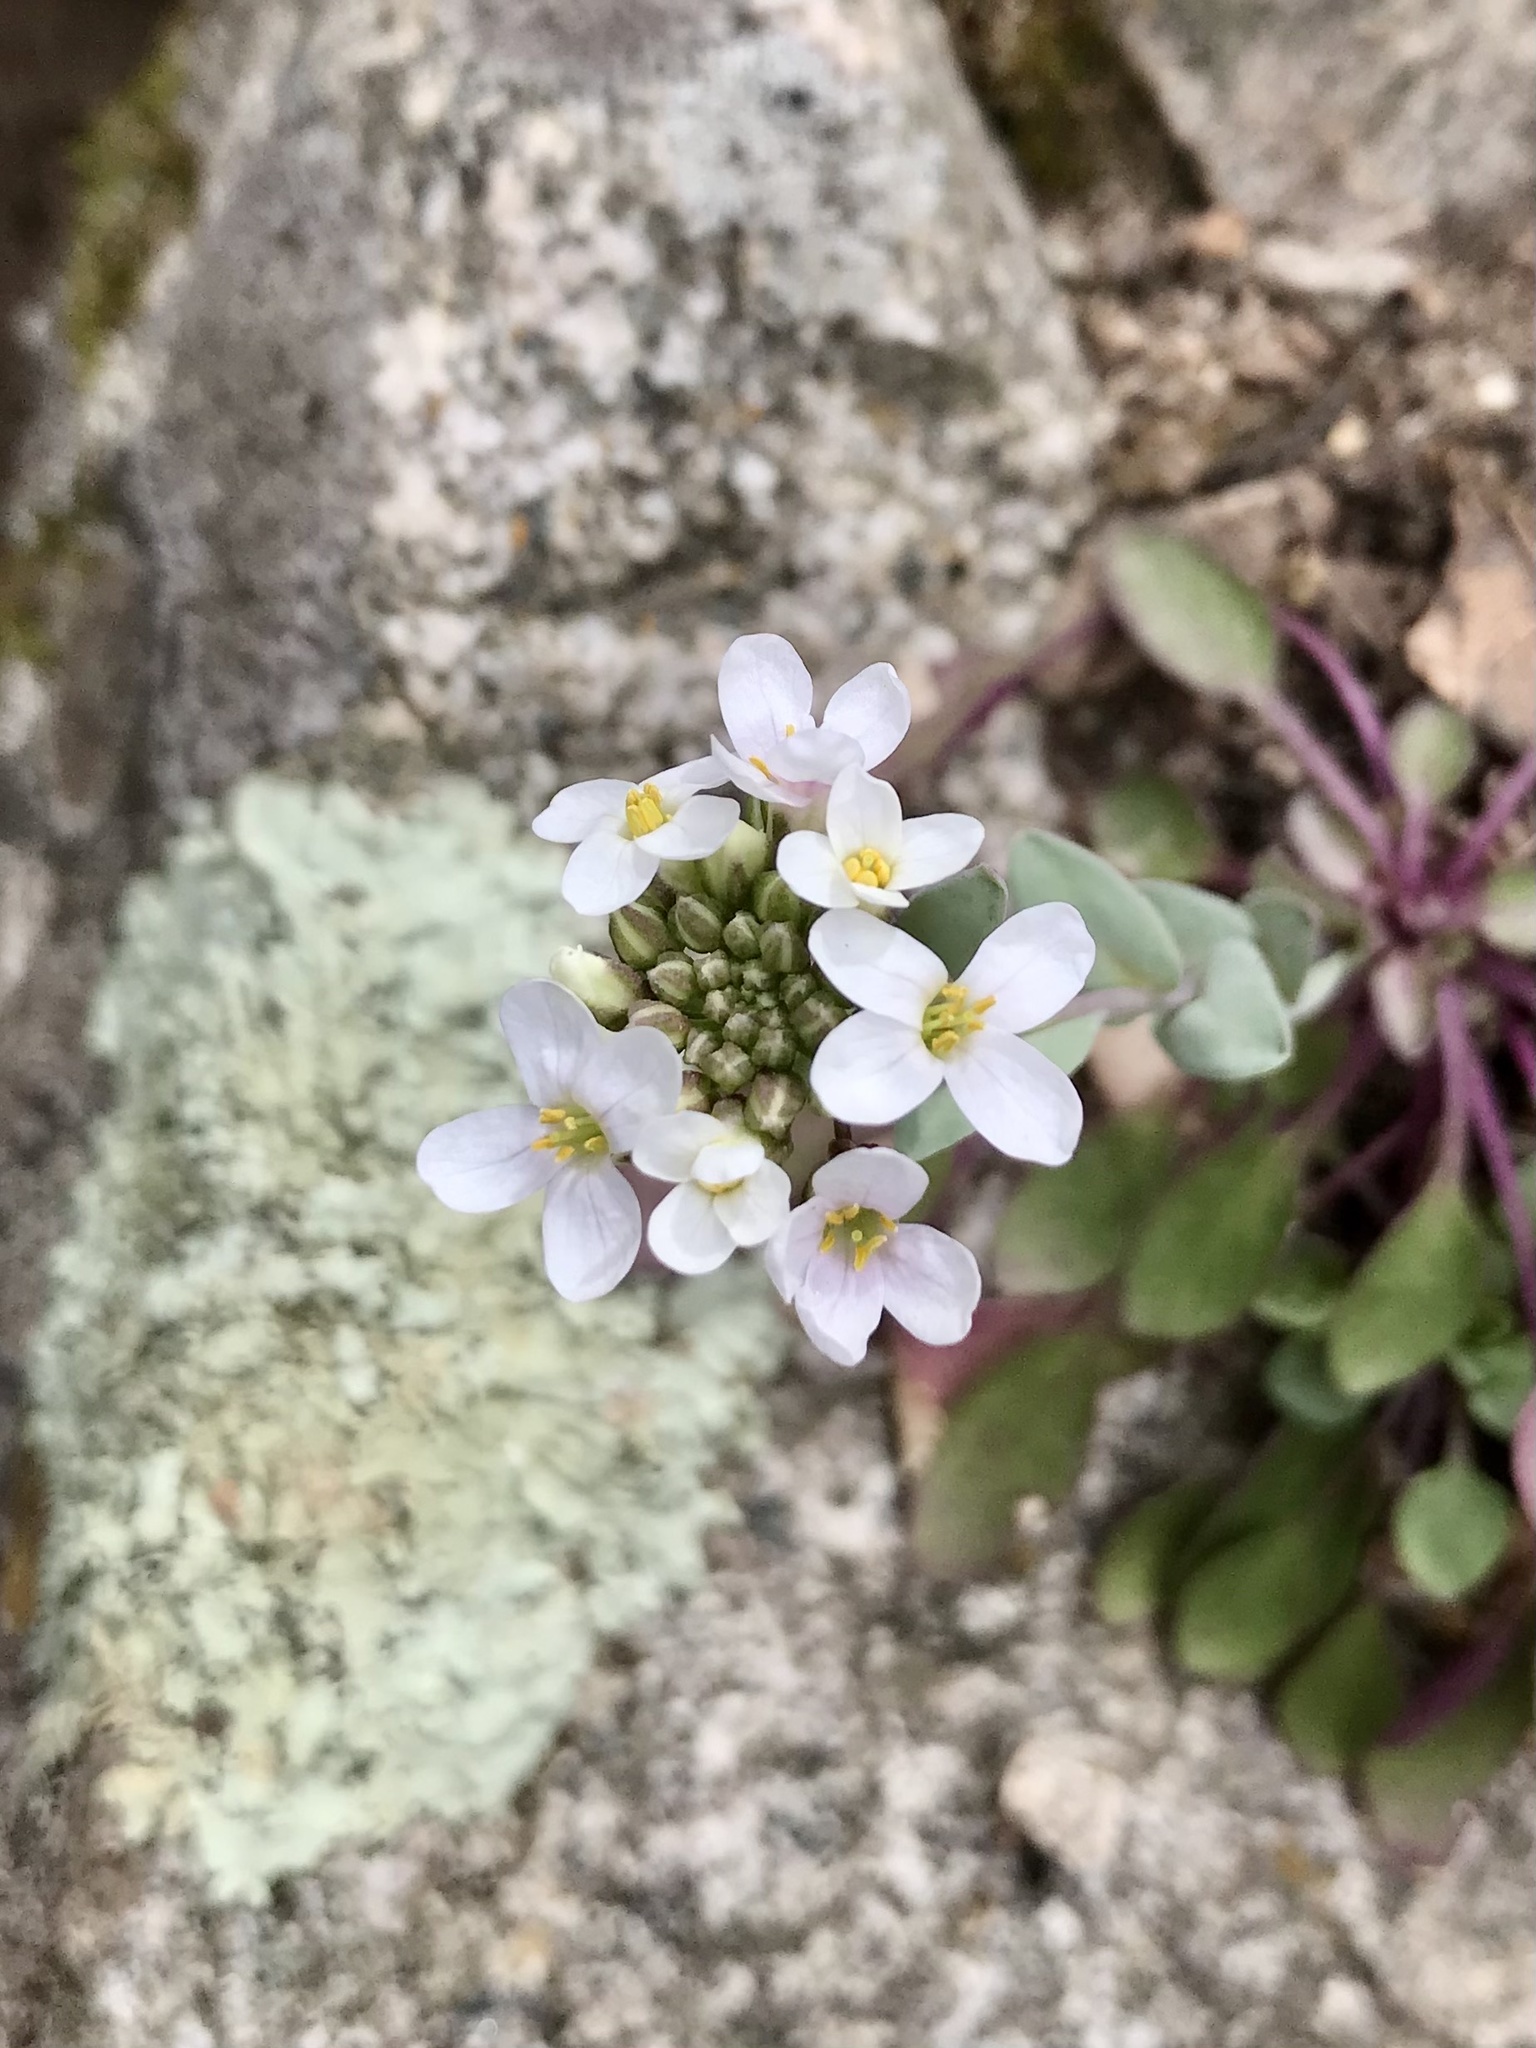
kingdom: Plantae
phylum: Tracheophyta
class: Magnoliopsida
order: Brassicales
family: Brassicaceae
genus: Noccaea
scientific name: Noccaea fendleri
